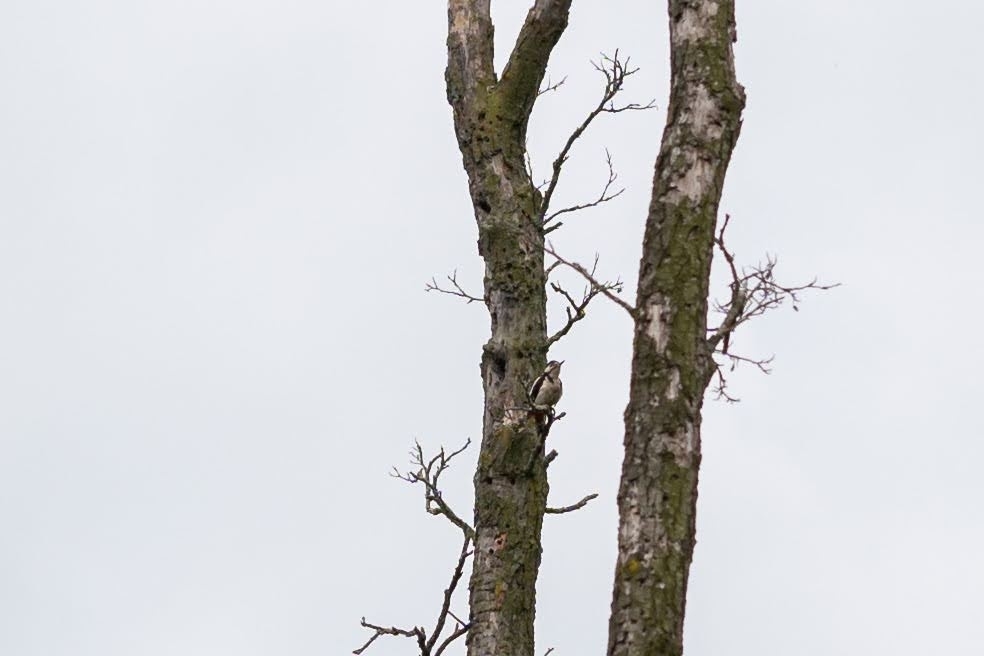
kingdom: Animalia
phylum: Chordata
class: Aves
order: Piciformes
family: Picidae
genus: Dendrocopos
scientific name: Dendrocopos major
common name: Great spotted woodpecker
